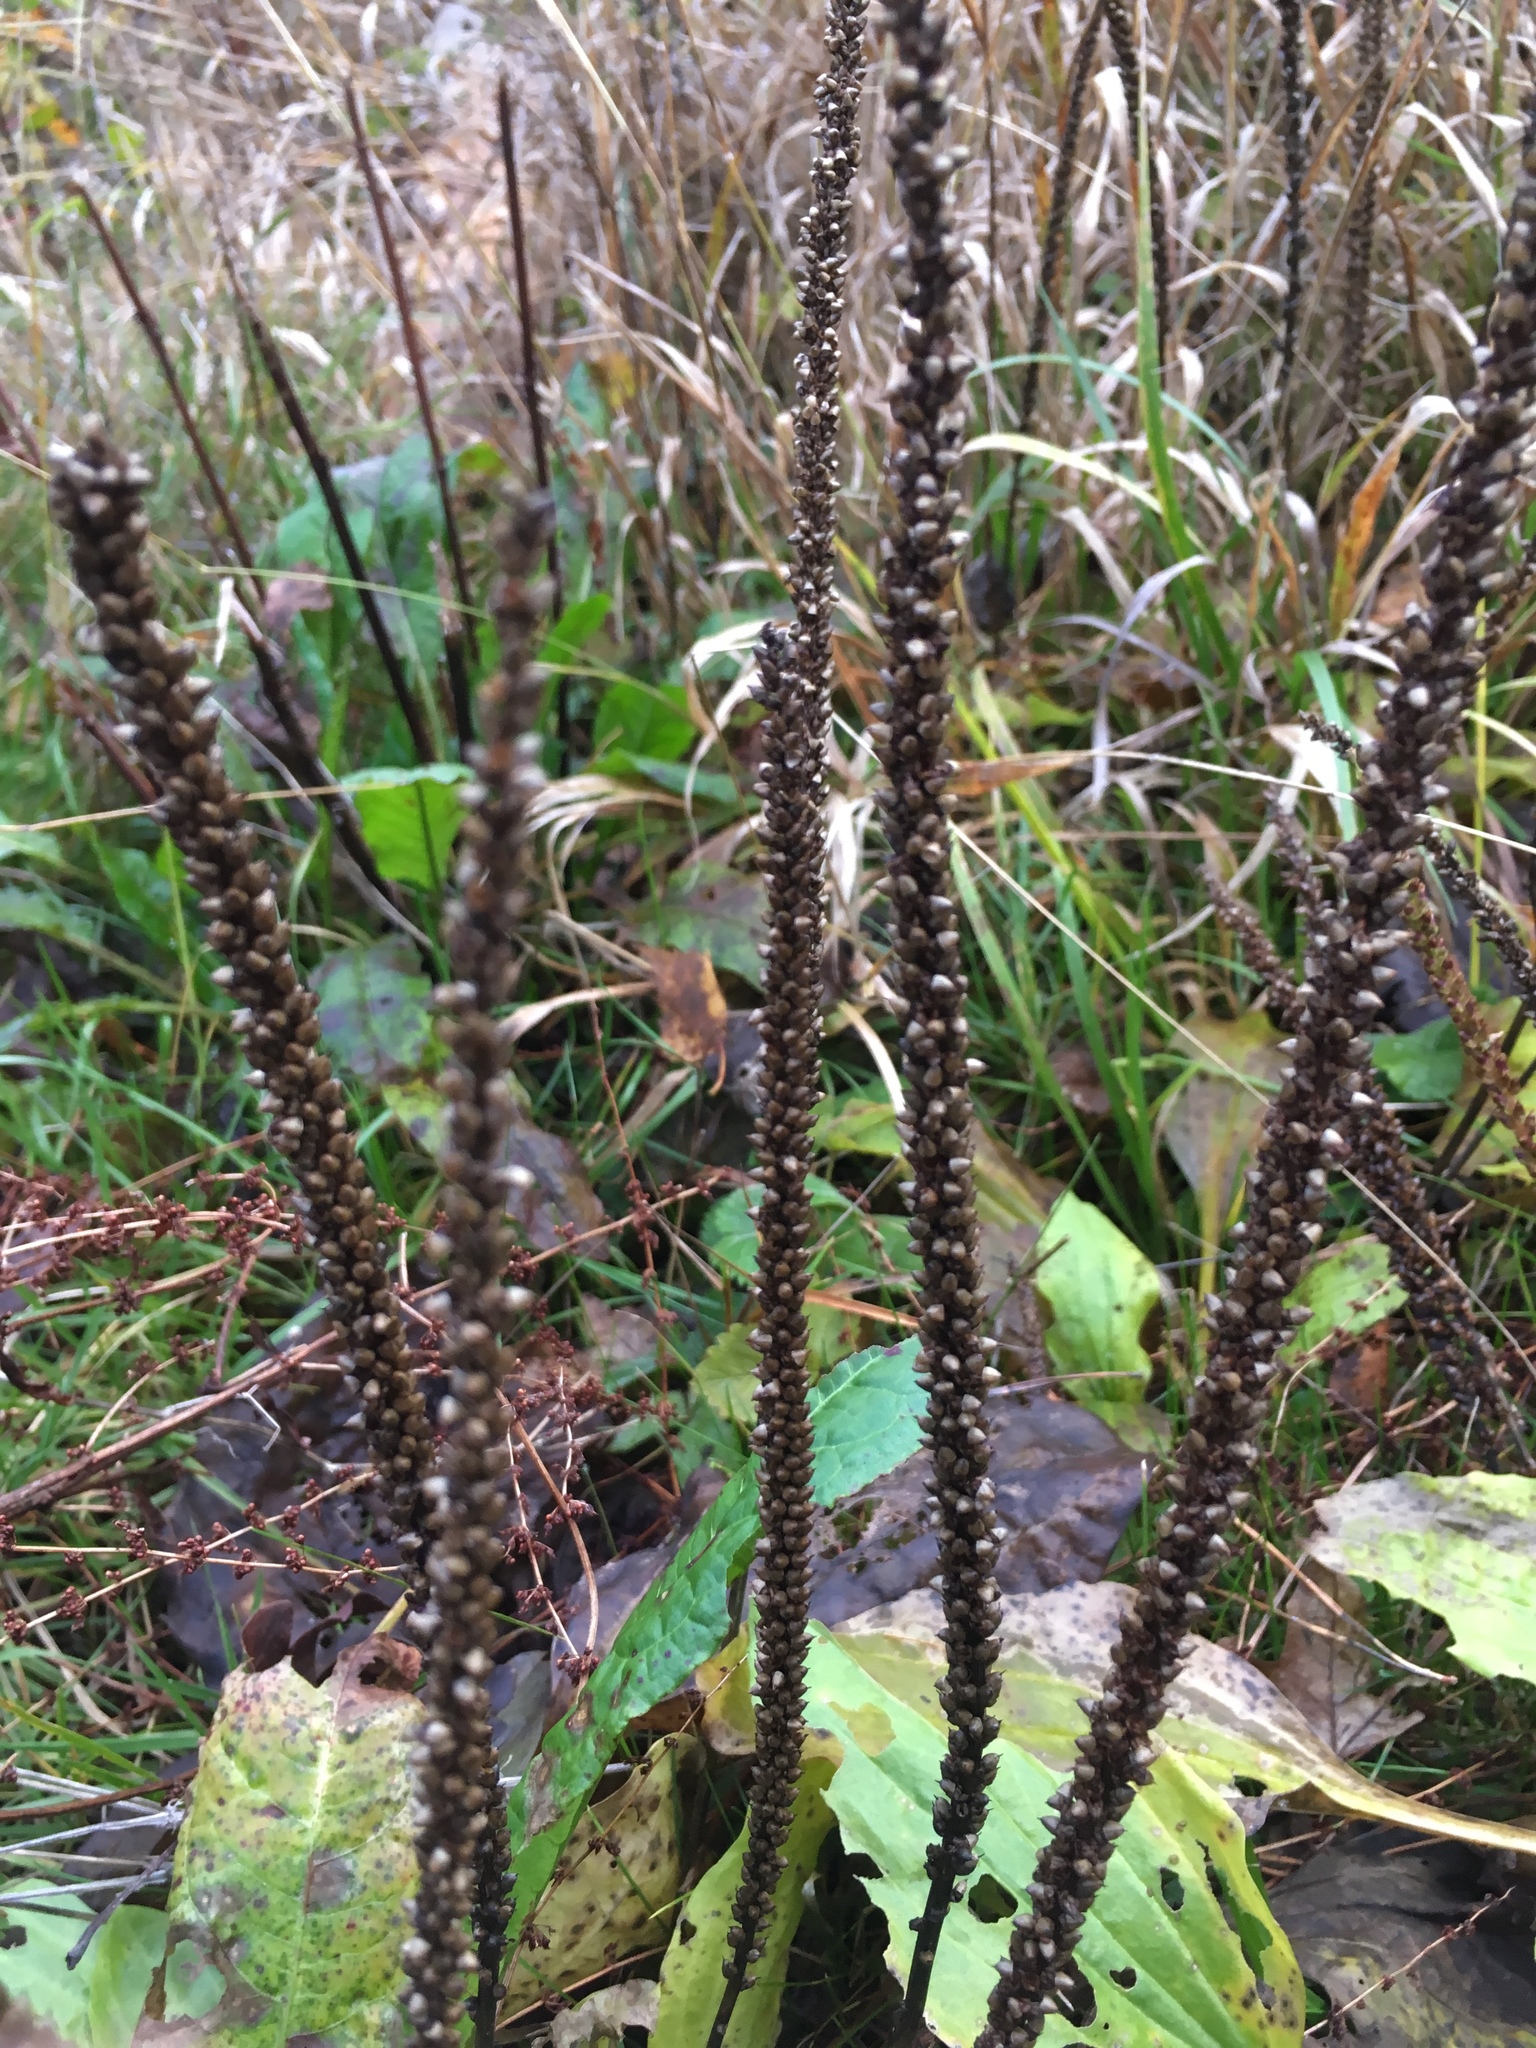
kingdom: Plantae
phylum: Tracheophyta
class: Magnoliopsida
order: Lamiales
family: Plantaginaceae
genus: Plantago
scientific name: Plantago major
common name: Common plantain
